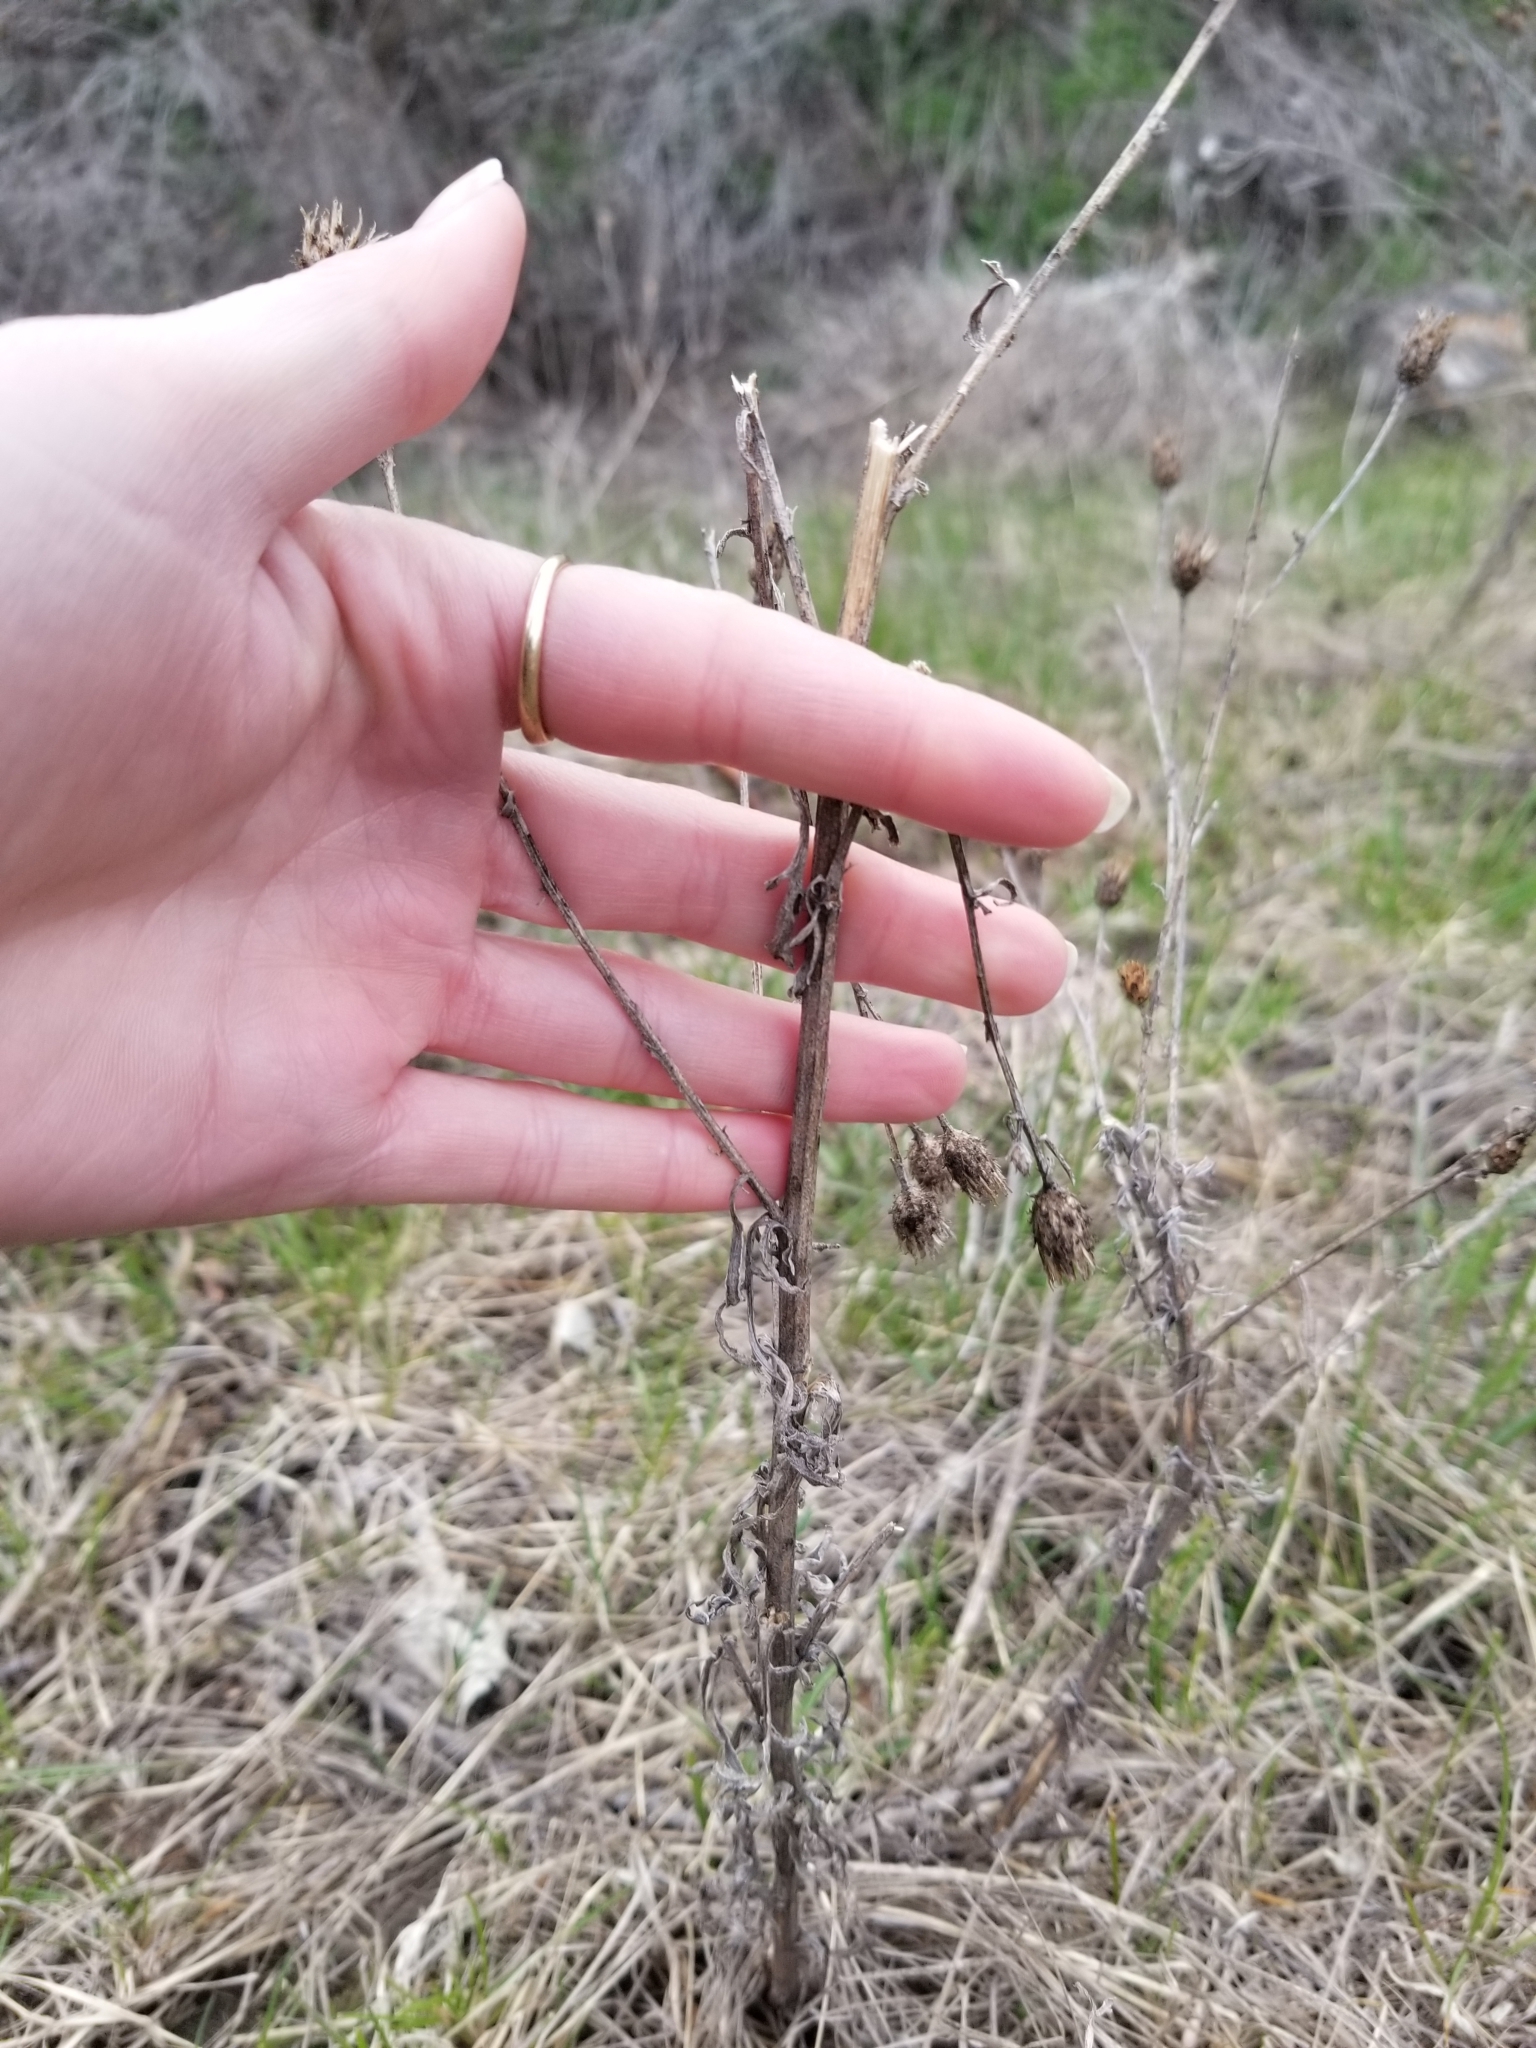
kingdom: Plantae
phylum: Tracheophyta
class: Magnoliopsida
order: Asterales
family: Asteraceae
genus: Centaurea
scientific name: Centaurea stoebe
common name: Spotted knapweed
